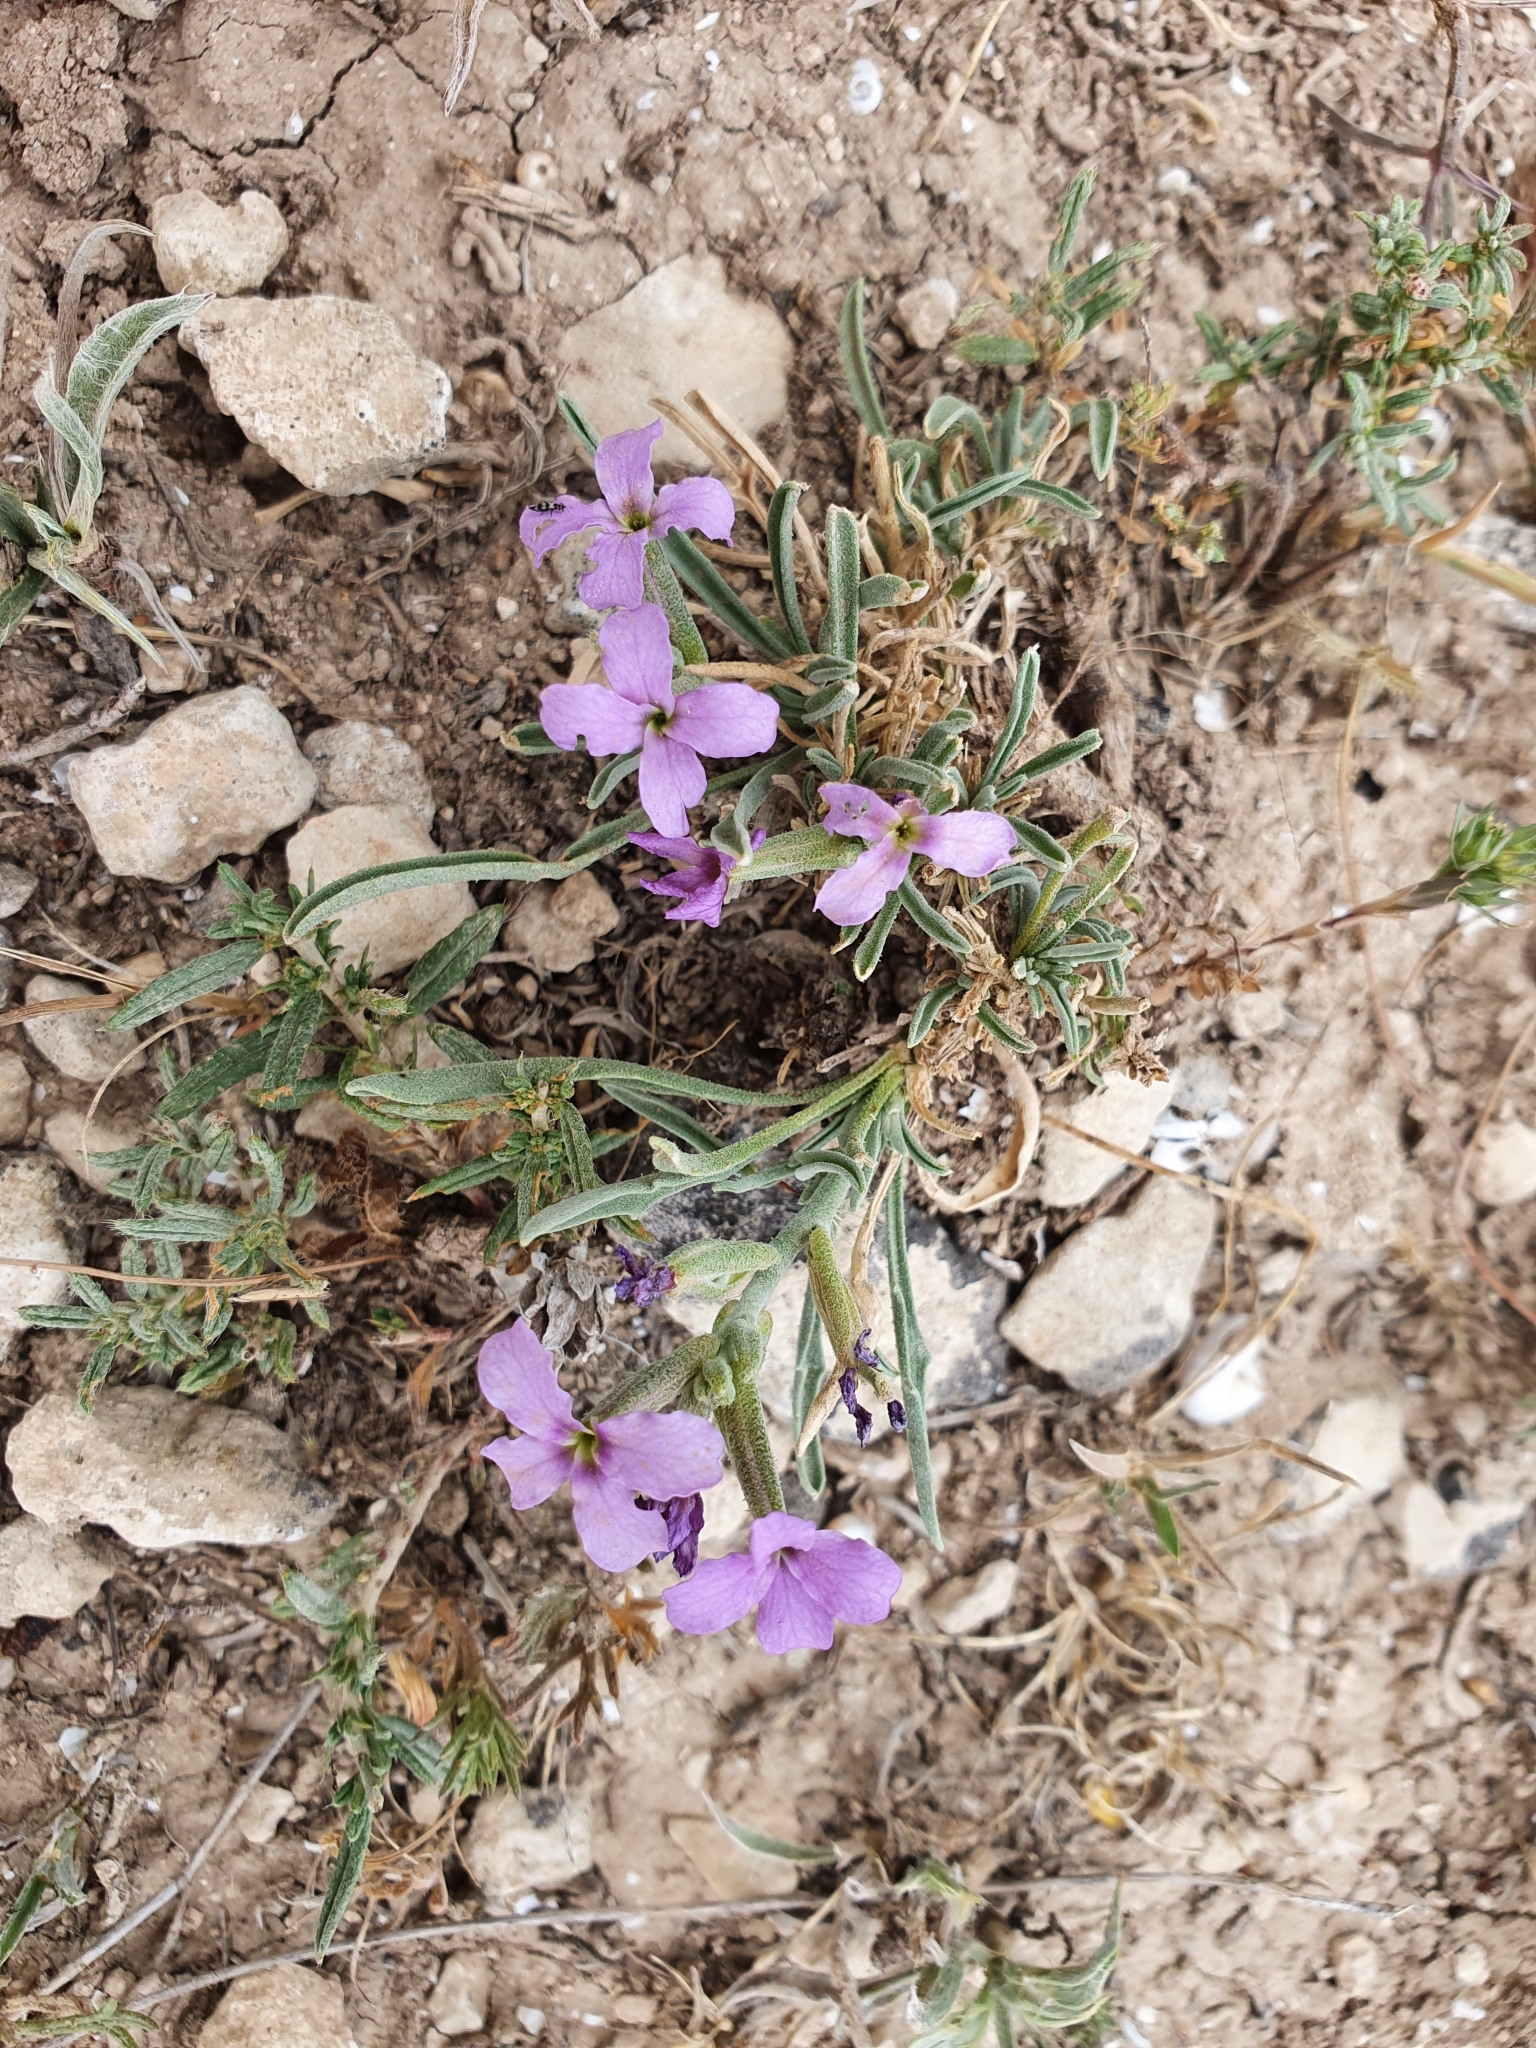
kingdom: Plantae
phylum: Tracheophyta
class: Magnoliopsida
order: Brassicales
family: Brassicaceae
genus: Matthiola
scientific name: Matthiola fruticulosa
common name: Sad stock
